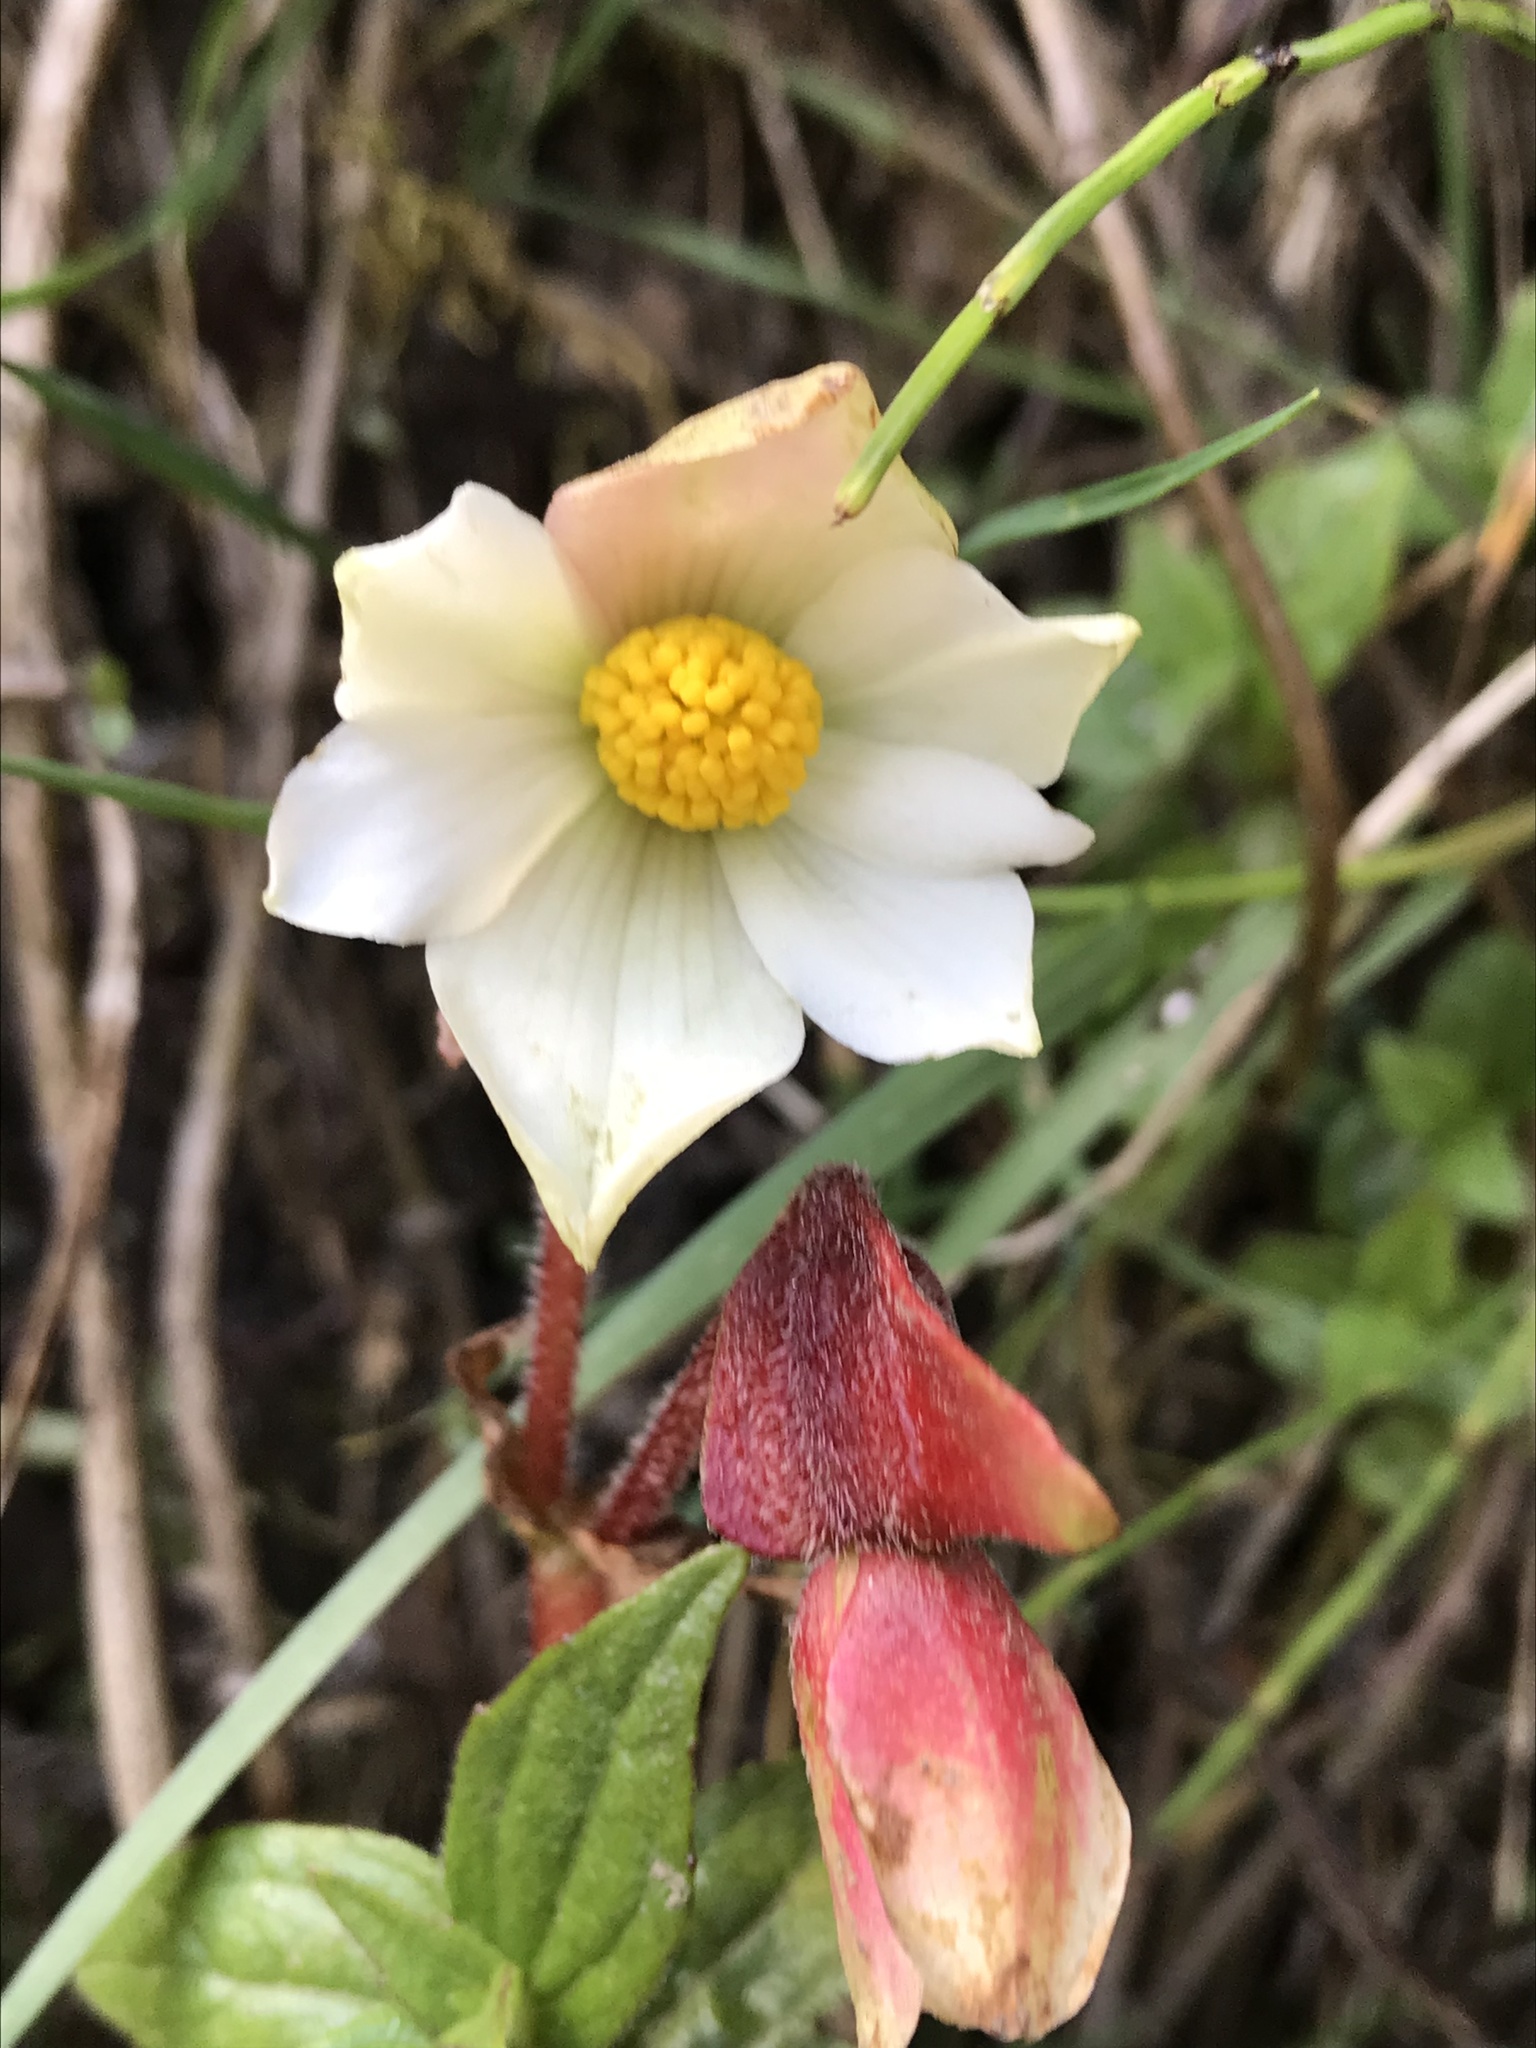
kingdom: Plantae
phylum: Tracheophyta
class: Magnoliopsida
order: Cucurbitales
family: Begoniaceae
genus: Begonia
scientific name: Begonia novogranatae
